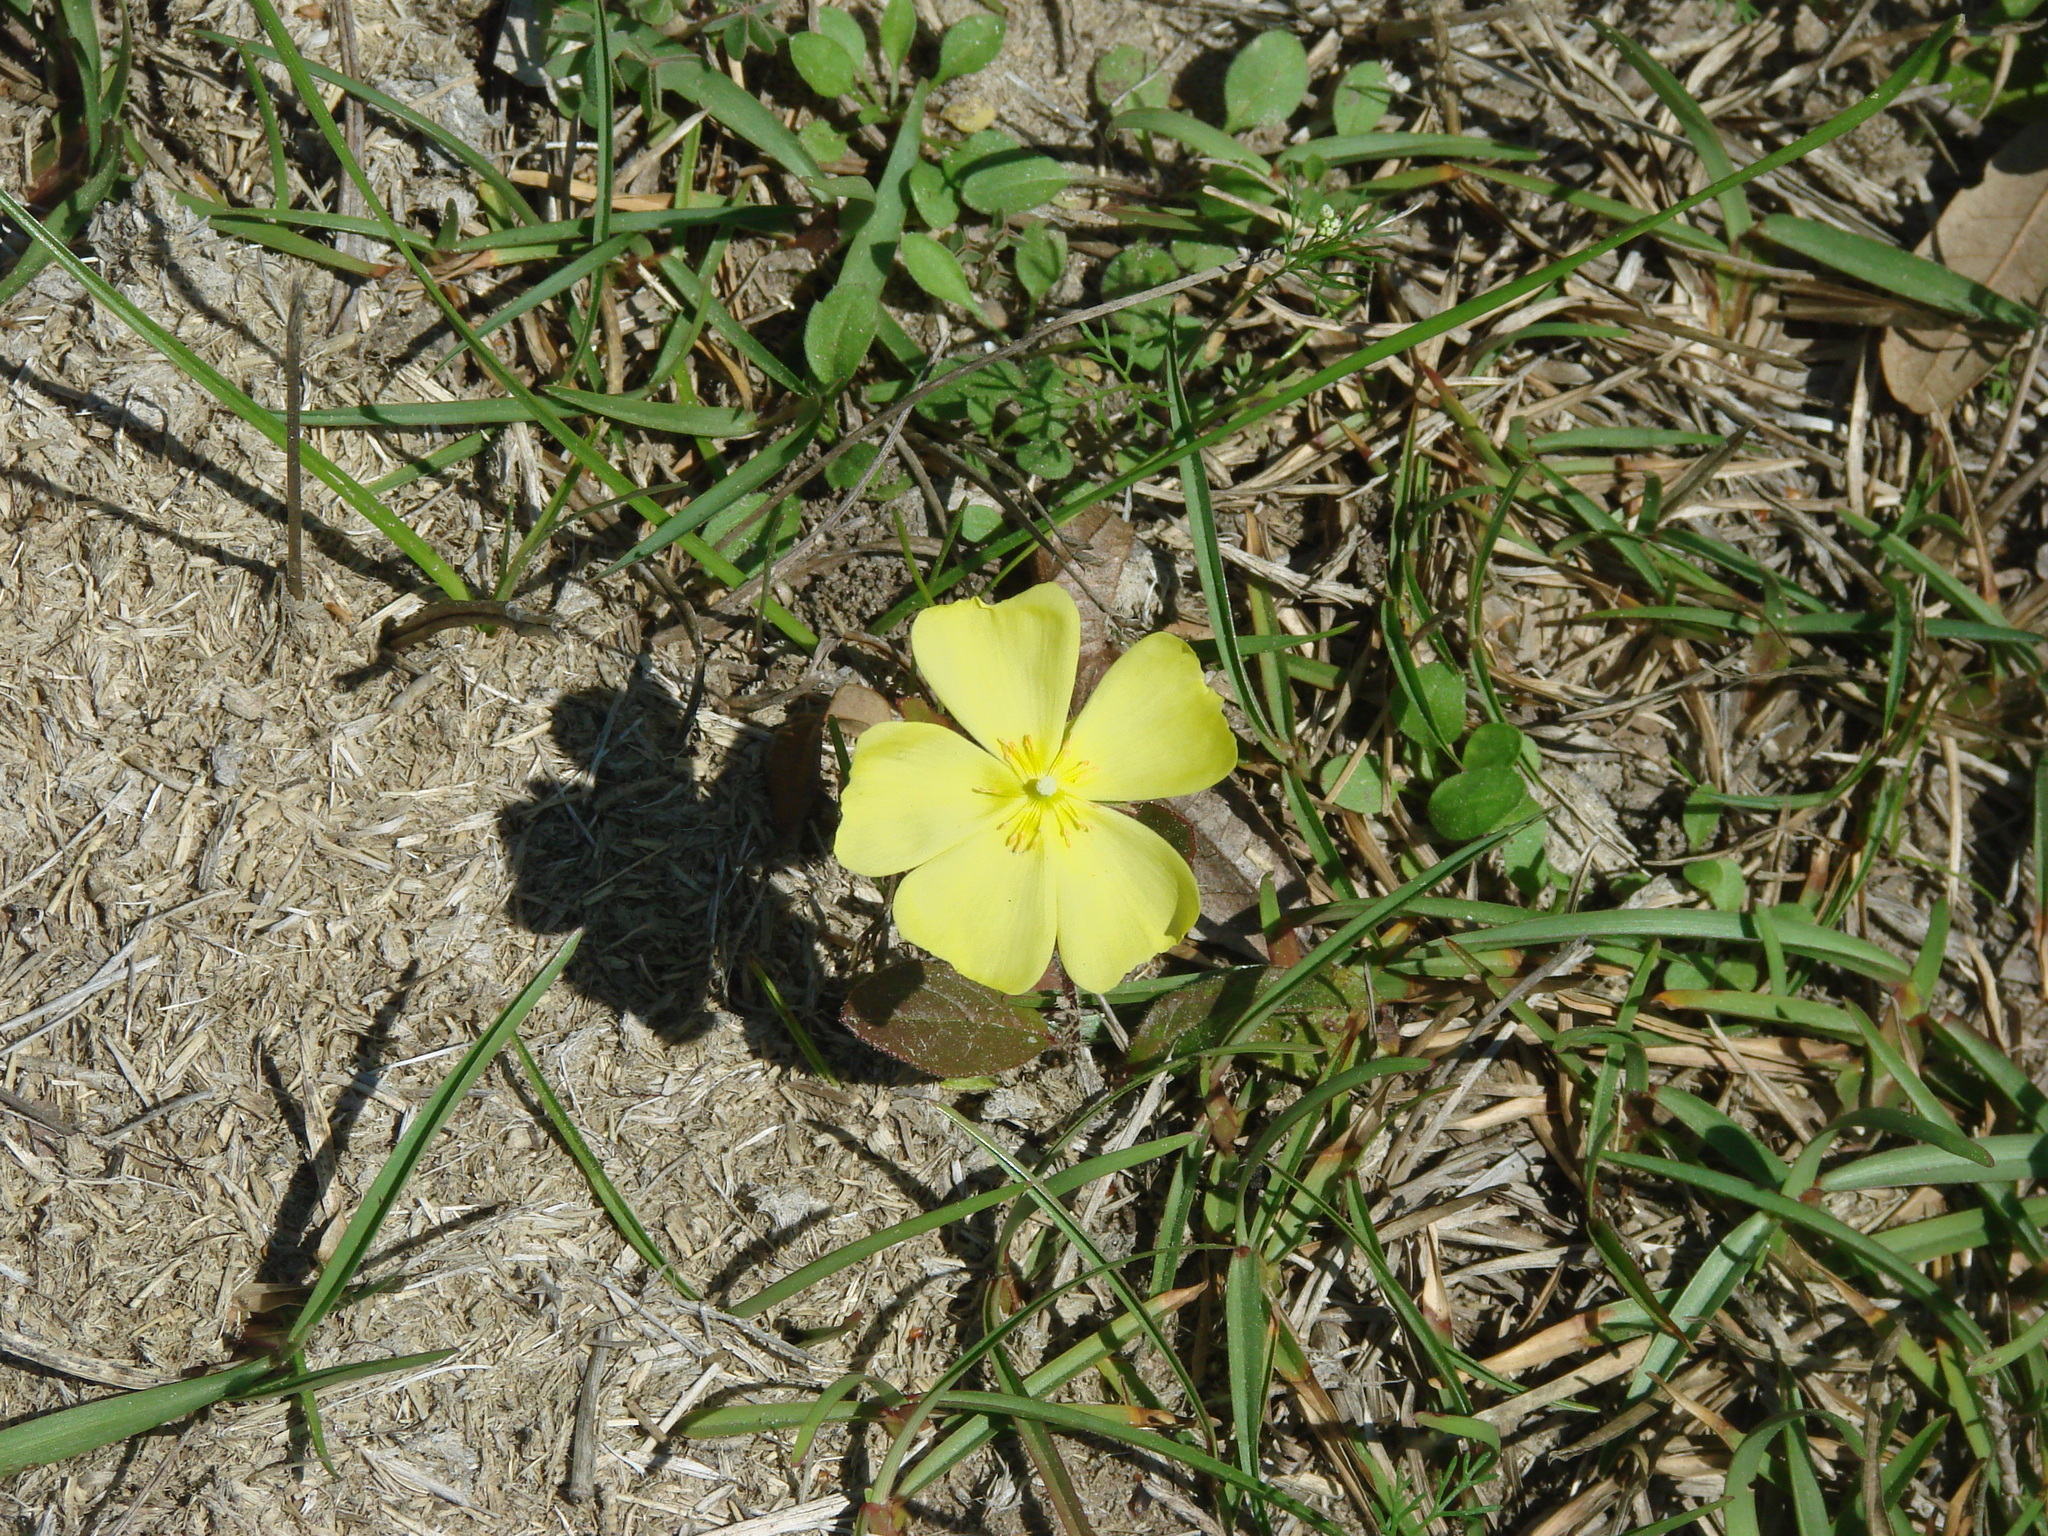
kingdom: Plantae
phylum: Tracheophyta
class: Magnoliopsida
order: Malvales
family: Cistaceae
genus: Crocanthemum
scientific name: Crocanthemum carolinianum
